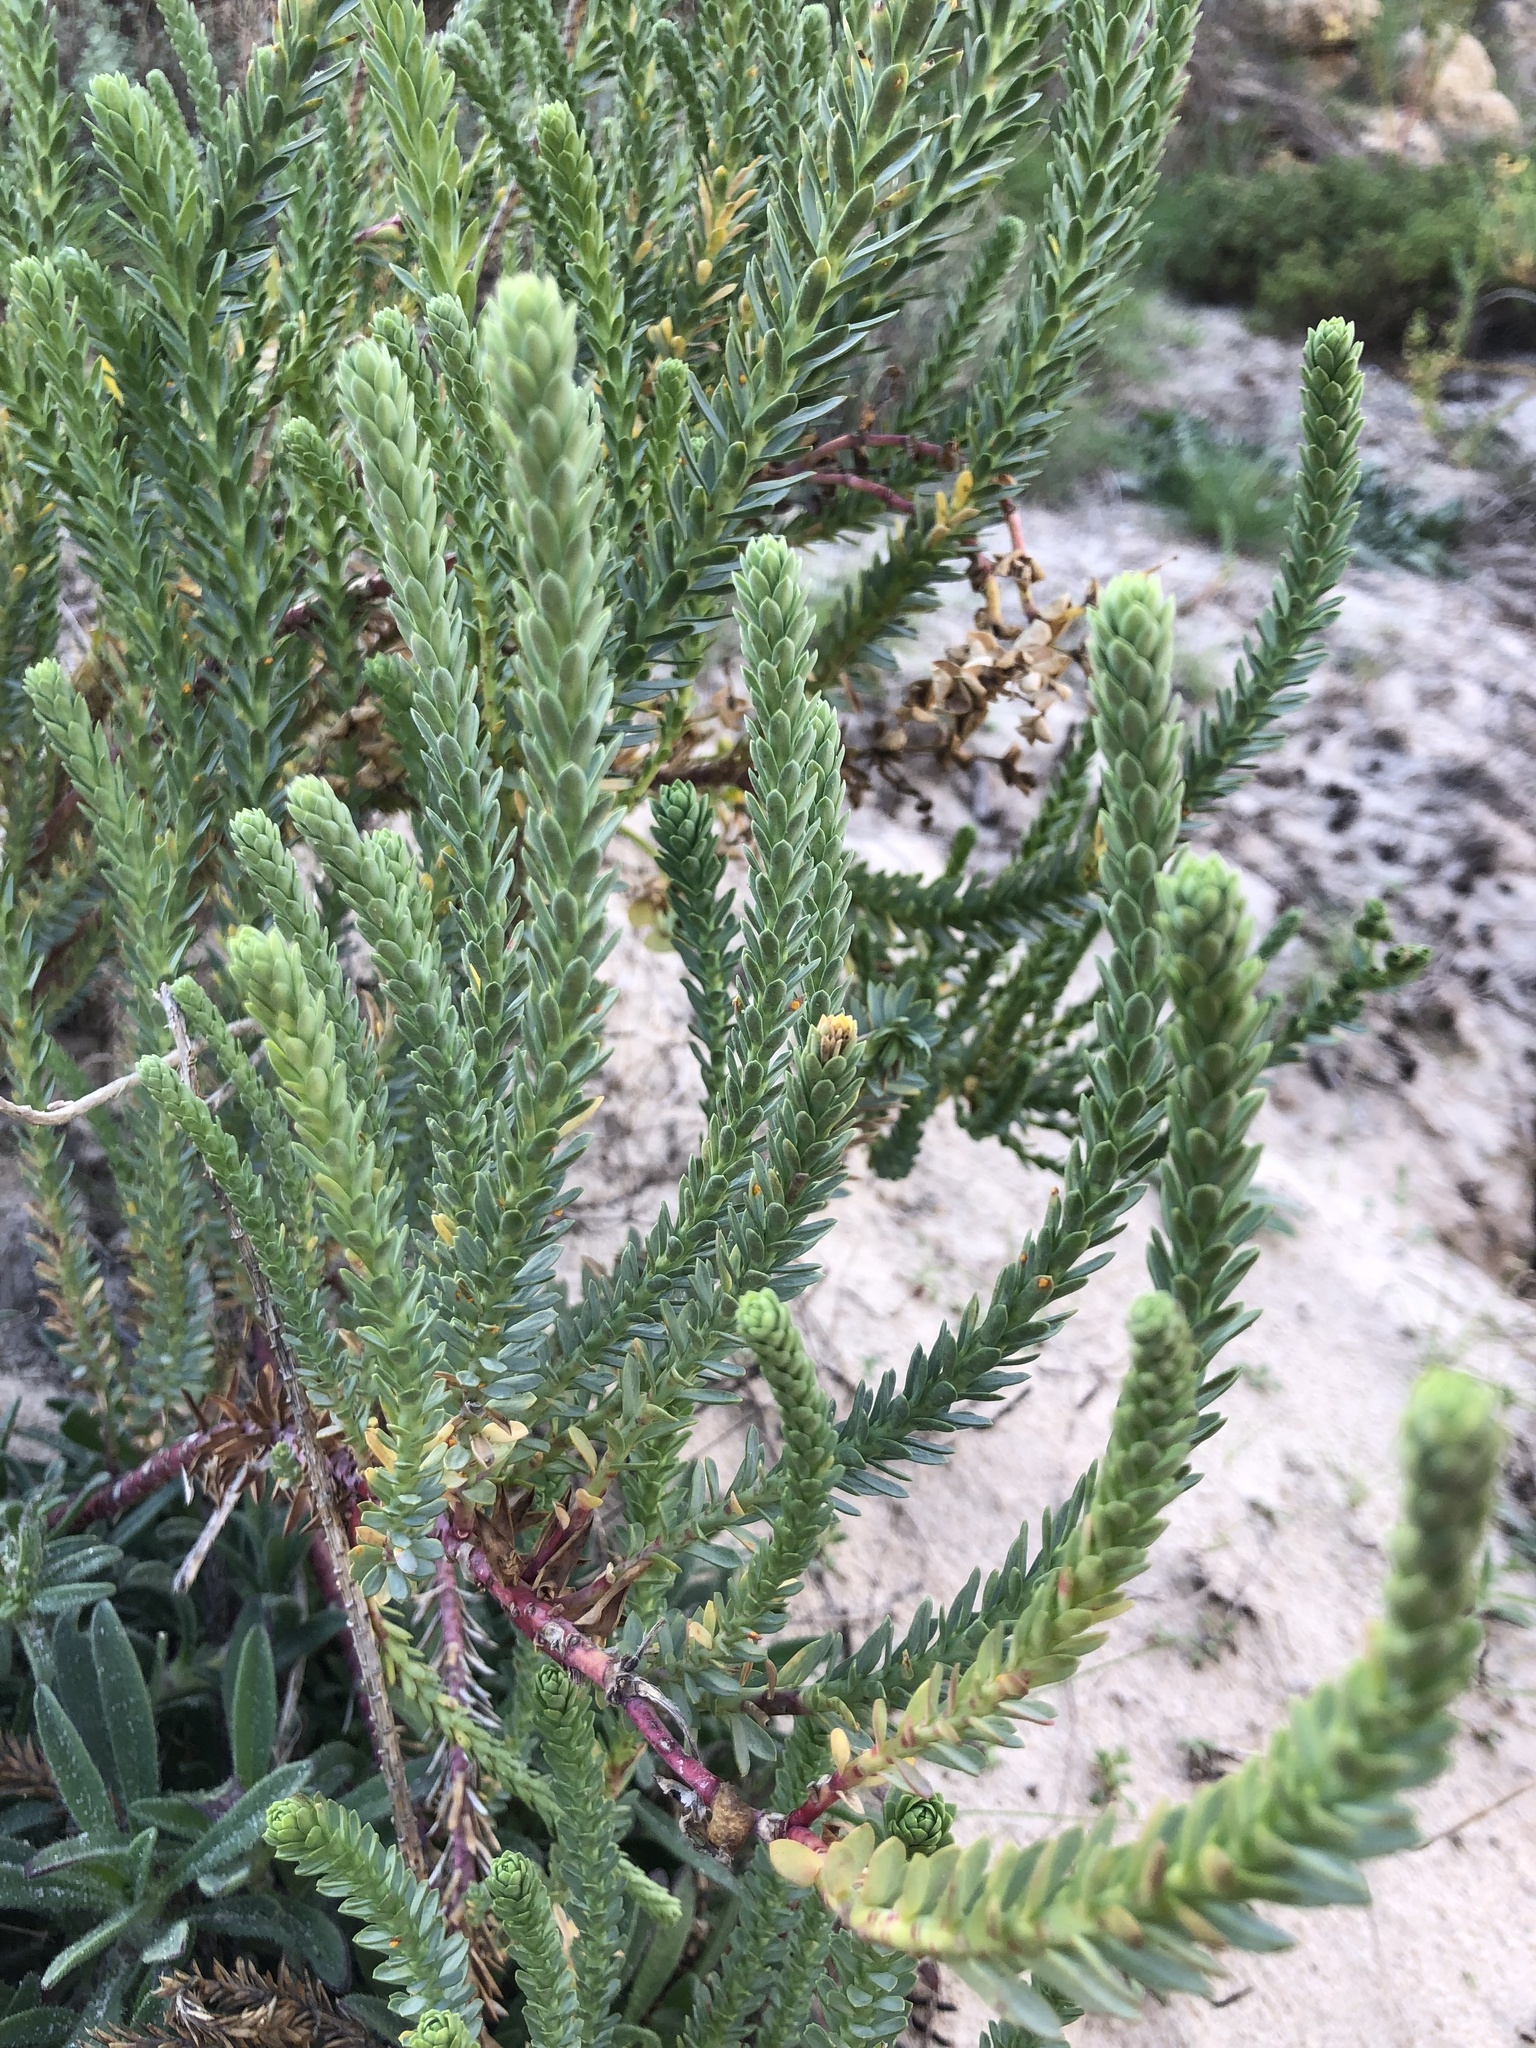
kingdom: Plantae
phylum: Tracheophyta
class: Magnoliopsida
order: Malpighiales
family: Euphorbiaceae
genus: Euphorbia
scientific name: Euphorbia paralias
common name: Sea spurge
